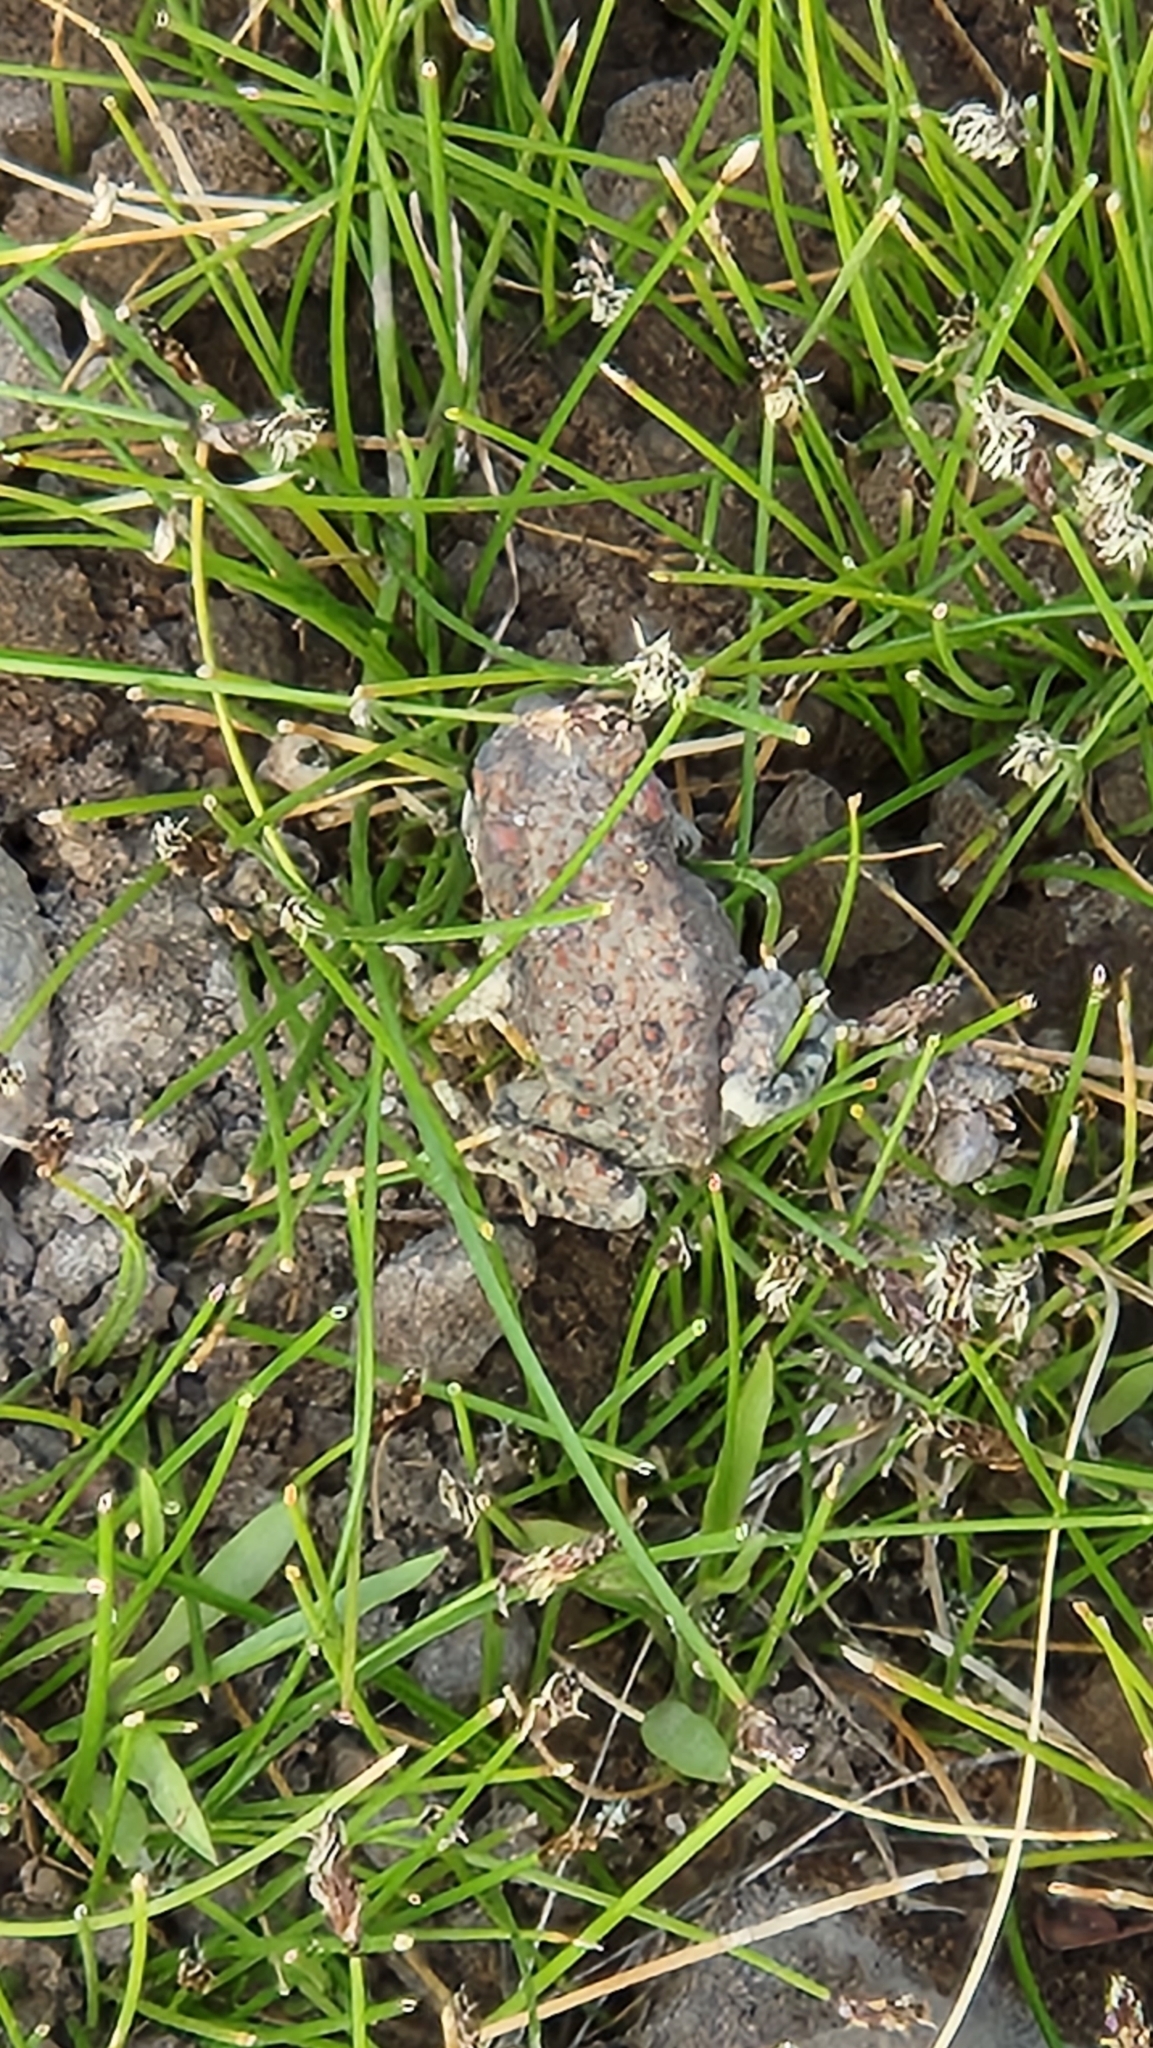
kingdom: Animalia
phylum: Chordata
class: Amphibia
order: Anura
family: Bufonidae
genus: Anaxyrus
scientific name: Anaxyrus punctatus
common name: Red-spotted toad
